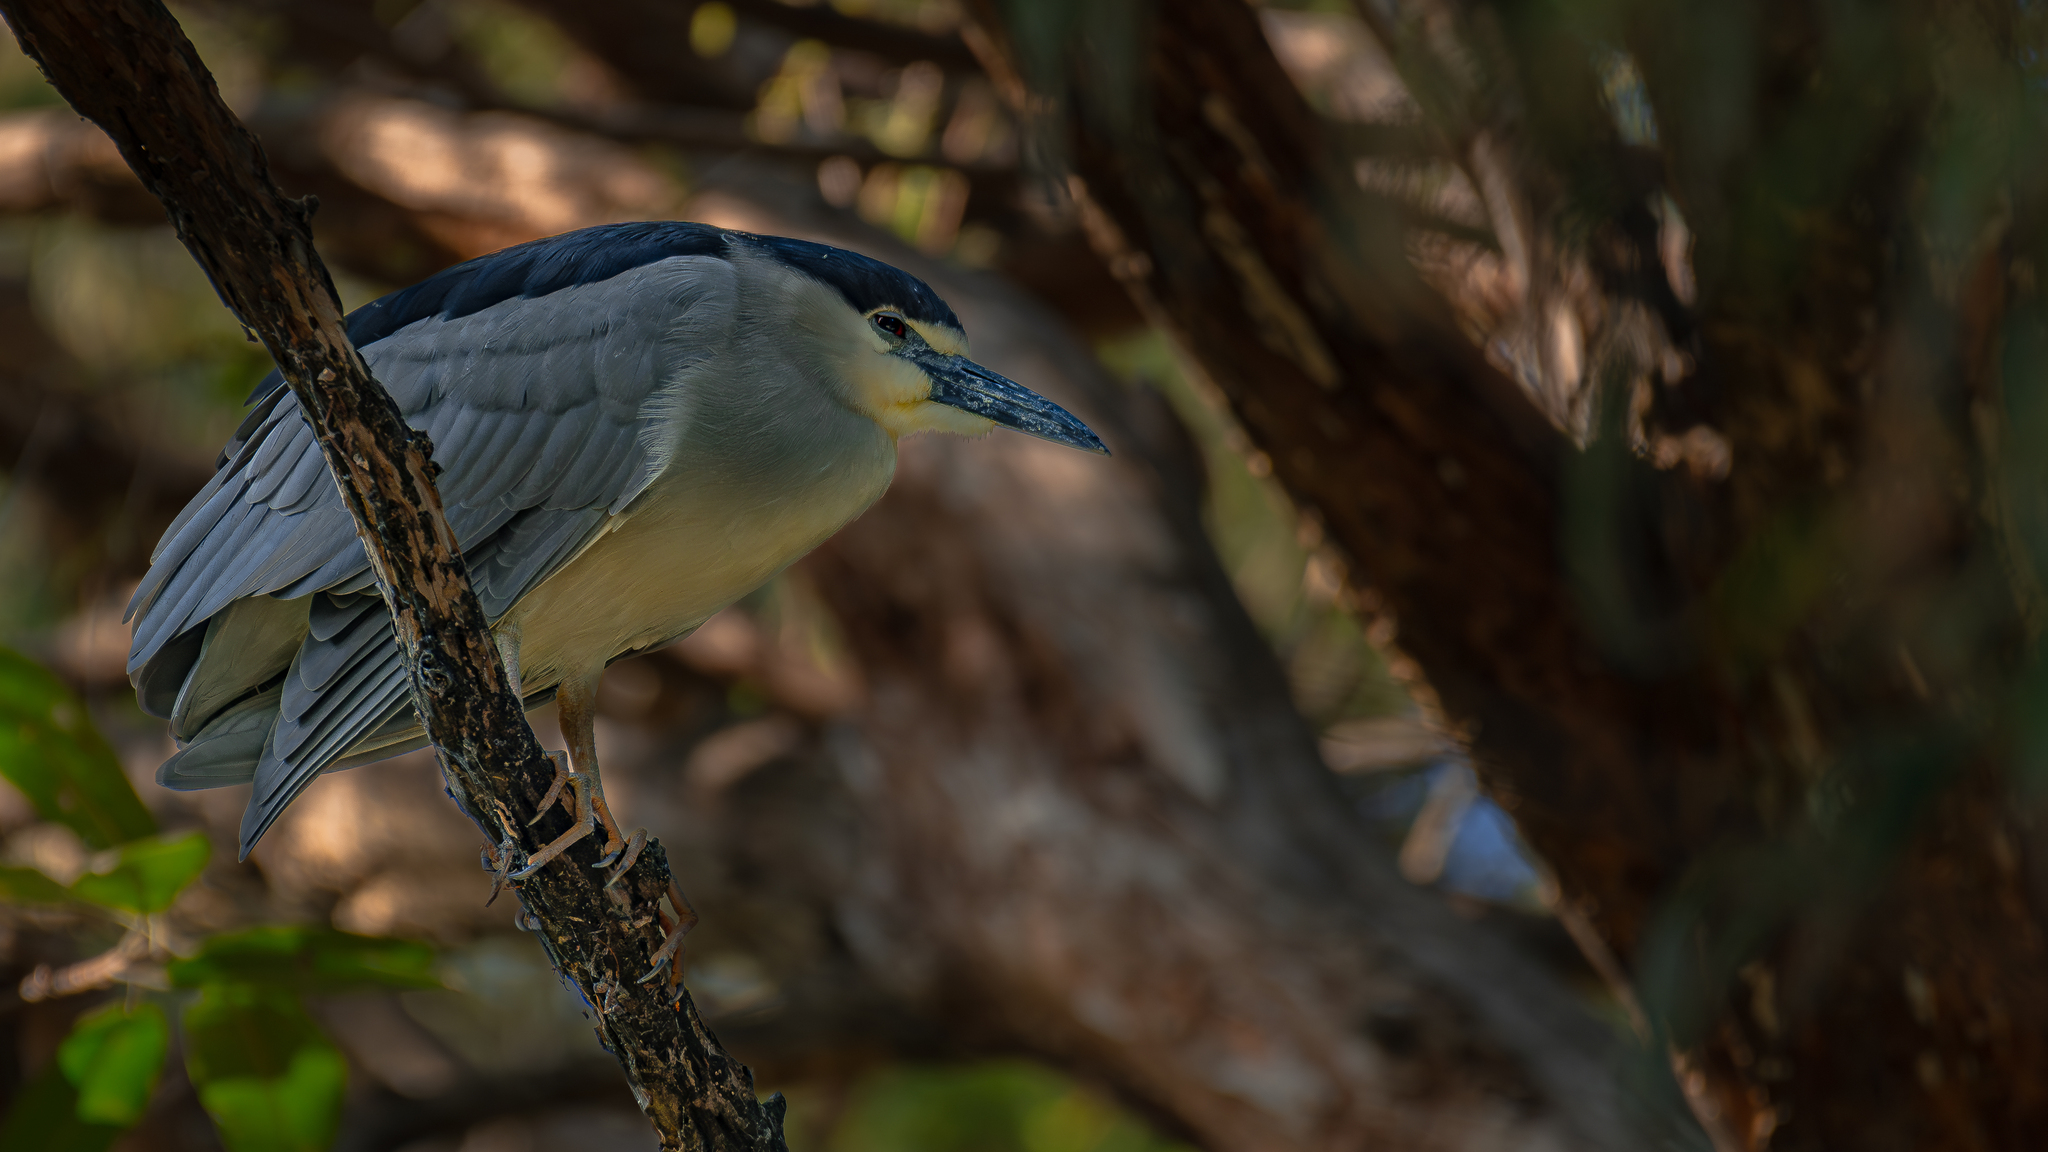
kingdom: Animalia
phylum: Chordata
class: Aves
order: Pelecaniformes
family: Ardeidae
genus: Nycticorax
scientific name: Nycticorax nycticorax
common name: Black-crowned night heron
